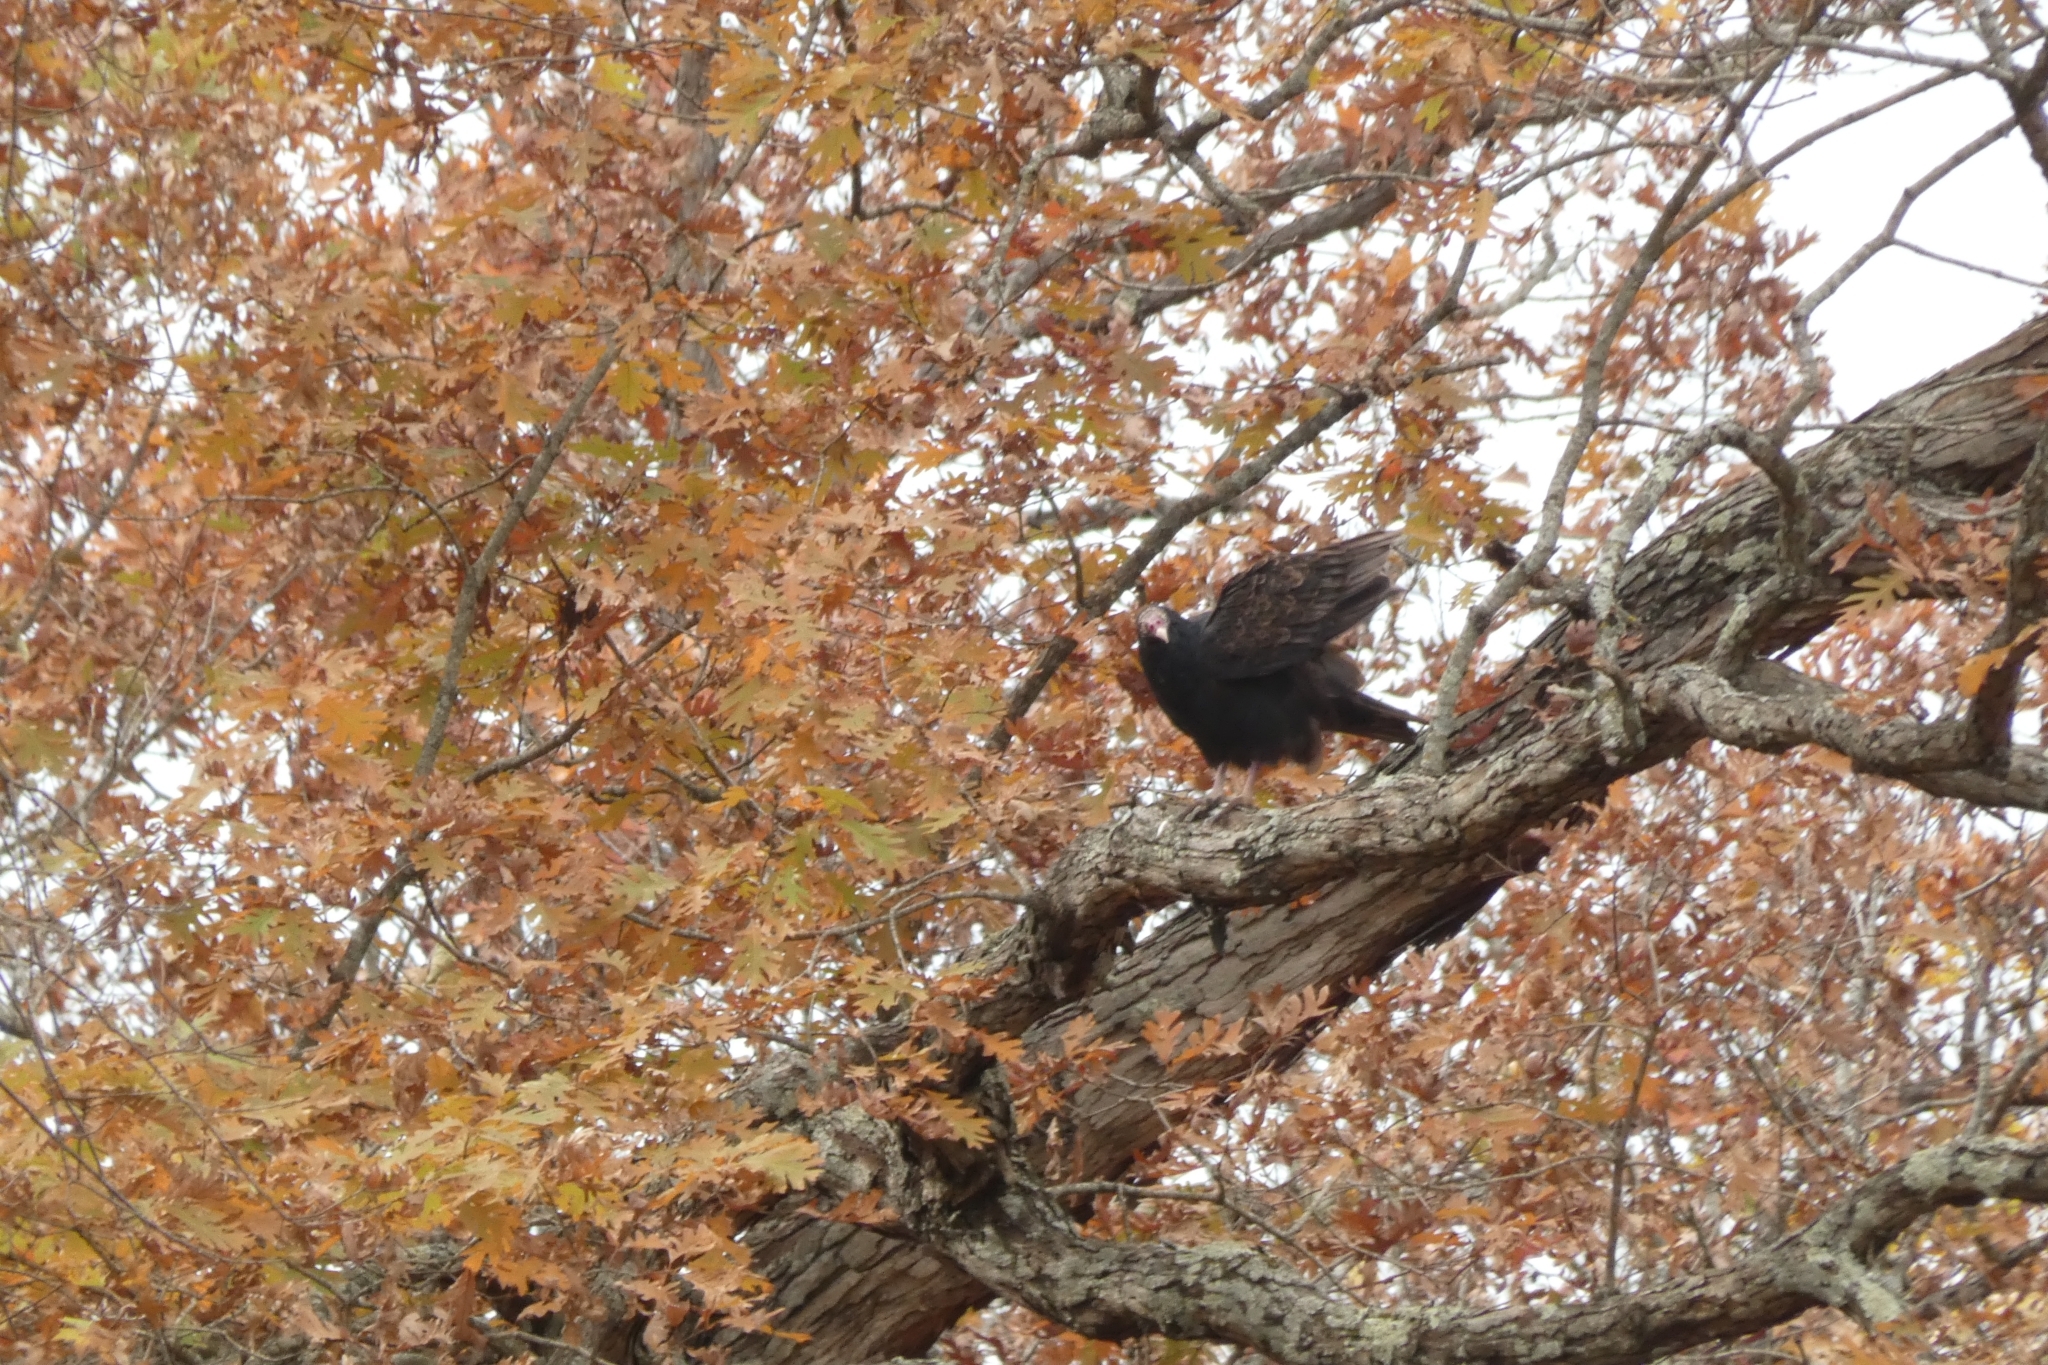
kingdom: Animalia
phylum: Chordata
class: Aves
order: Accipitriformes
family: Cathartidae
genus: Cathartes
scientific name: Cathartes aura
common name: Turkey vulture
